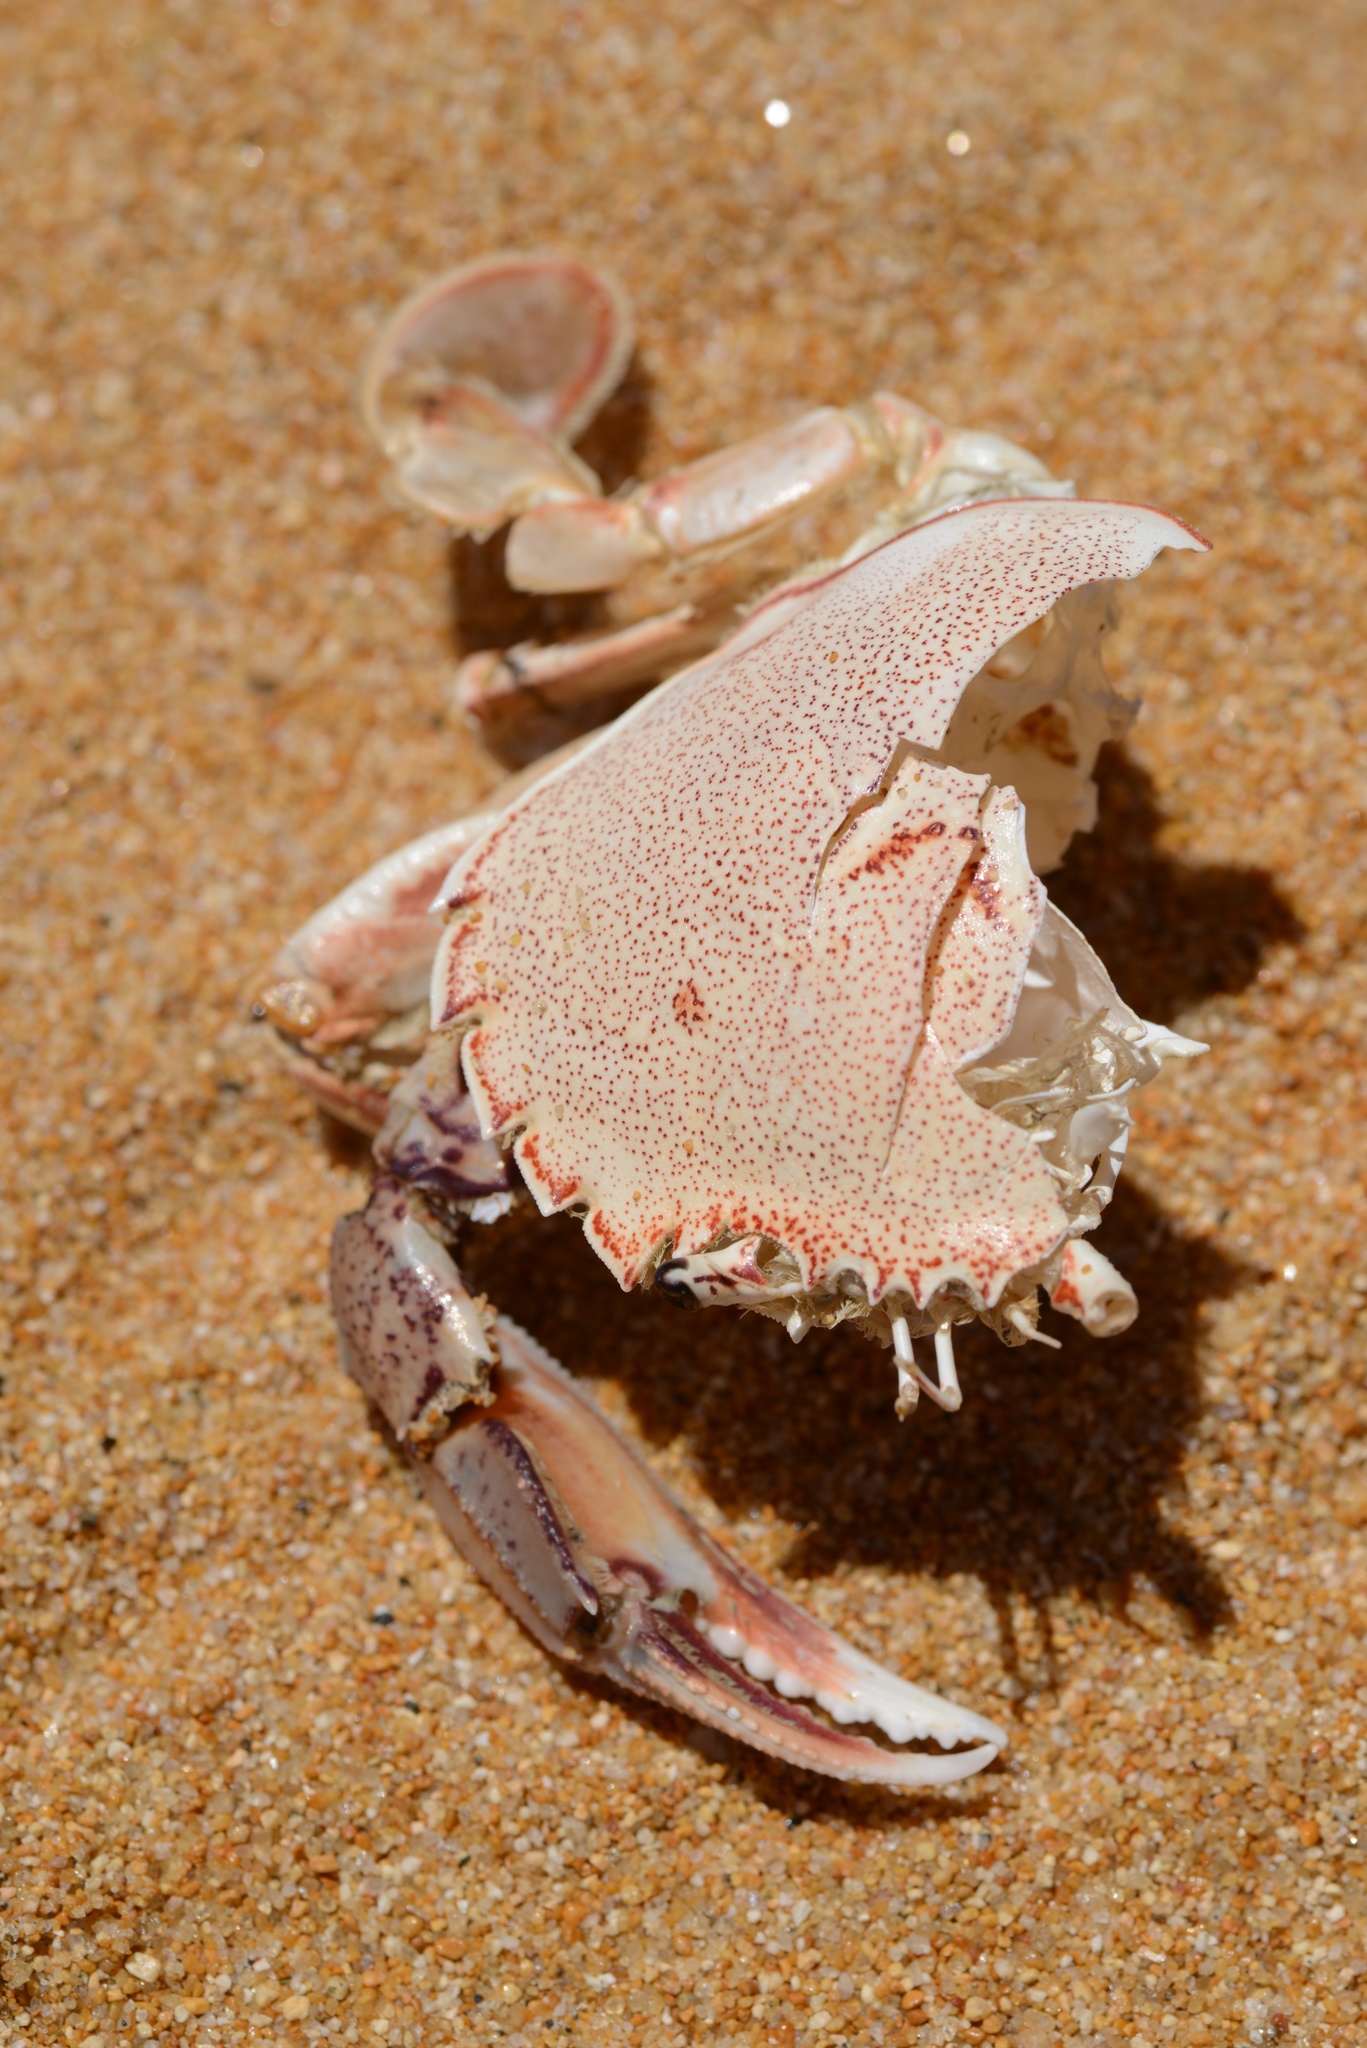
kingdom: Animalia
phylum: Arthropoda
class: Malacostraca
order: Decapoda
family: Ovalipidae
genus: Ovalipes
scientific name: Ovalipes catharus
